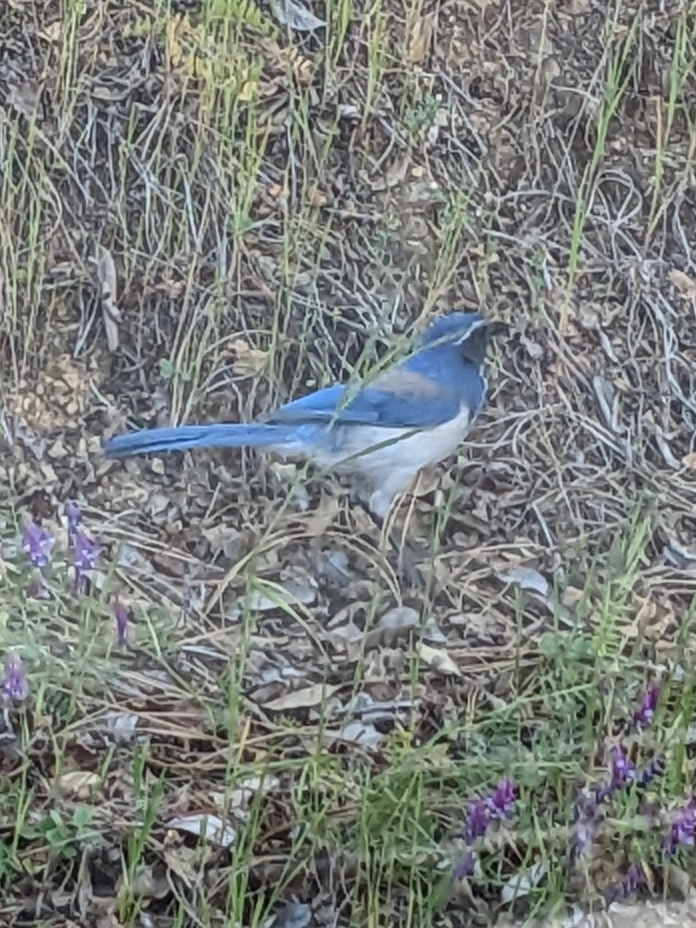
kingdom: Animalia
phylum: Chordata
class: Aves
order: Passeriformes
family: Corvidae
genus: Aphelocoma
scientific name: Aphelocoma californica
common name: California scrub-jay
